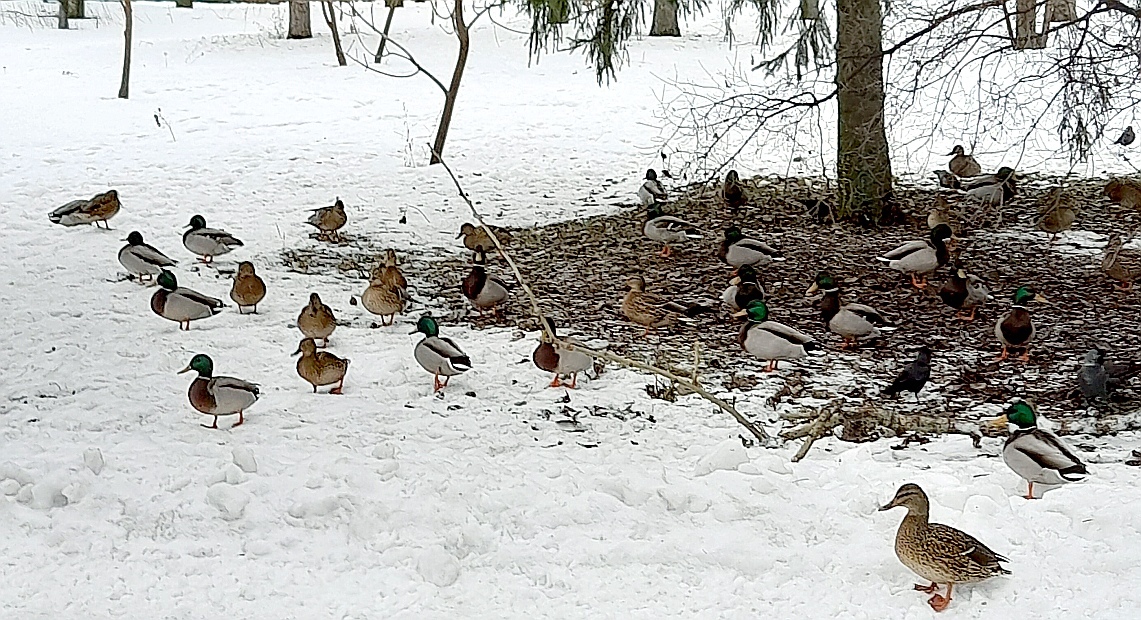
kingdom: Animalia
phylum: Chordata
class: Aves
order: Anseriformes
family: Anatidae
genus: Anas
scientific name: Anas platyrhynchos
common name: Mallard
